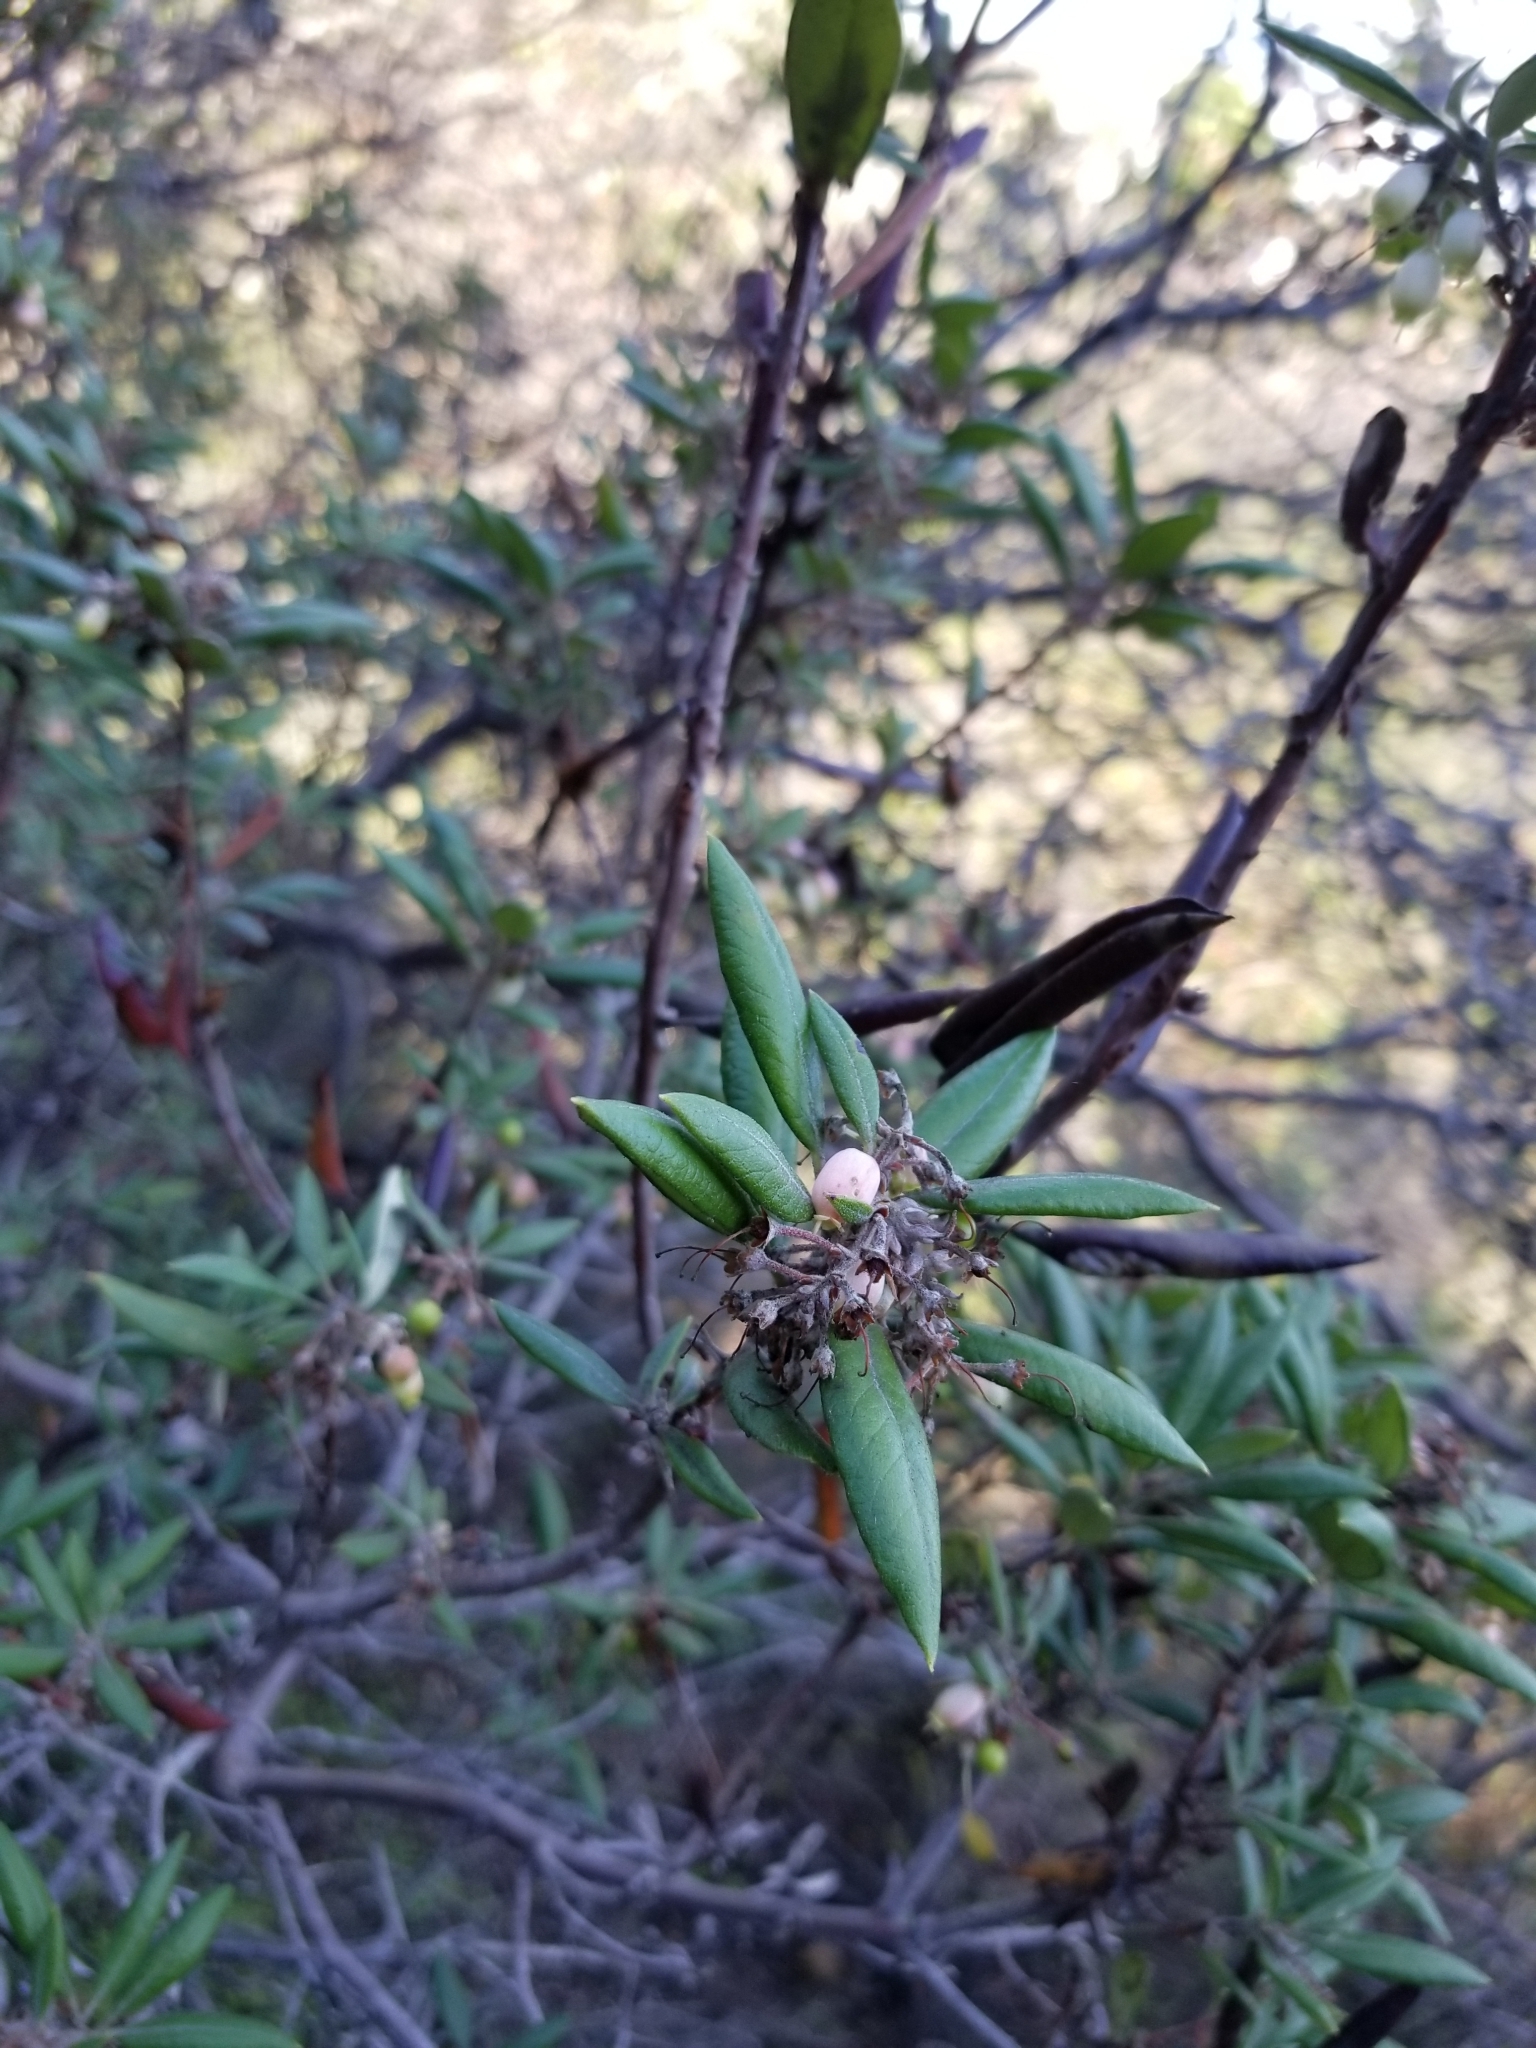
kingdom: Plantae
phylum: Tracheophyta
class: Magnoliopsida
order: Ericales
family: Ericaceae
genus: Arctostaphylos
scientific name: Arctostaphylos bicolor
